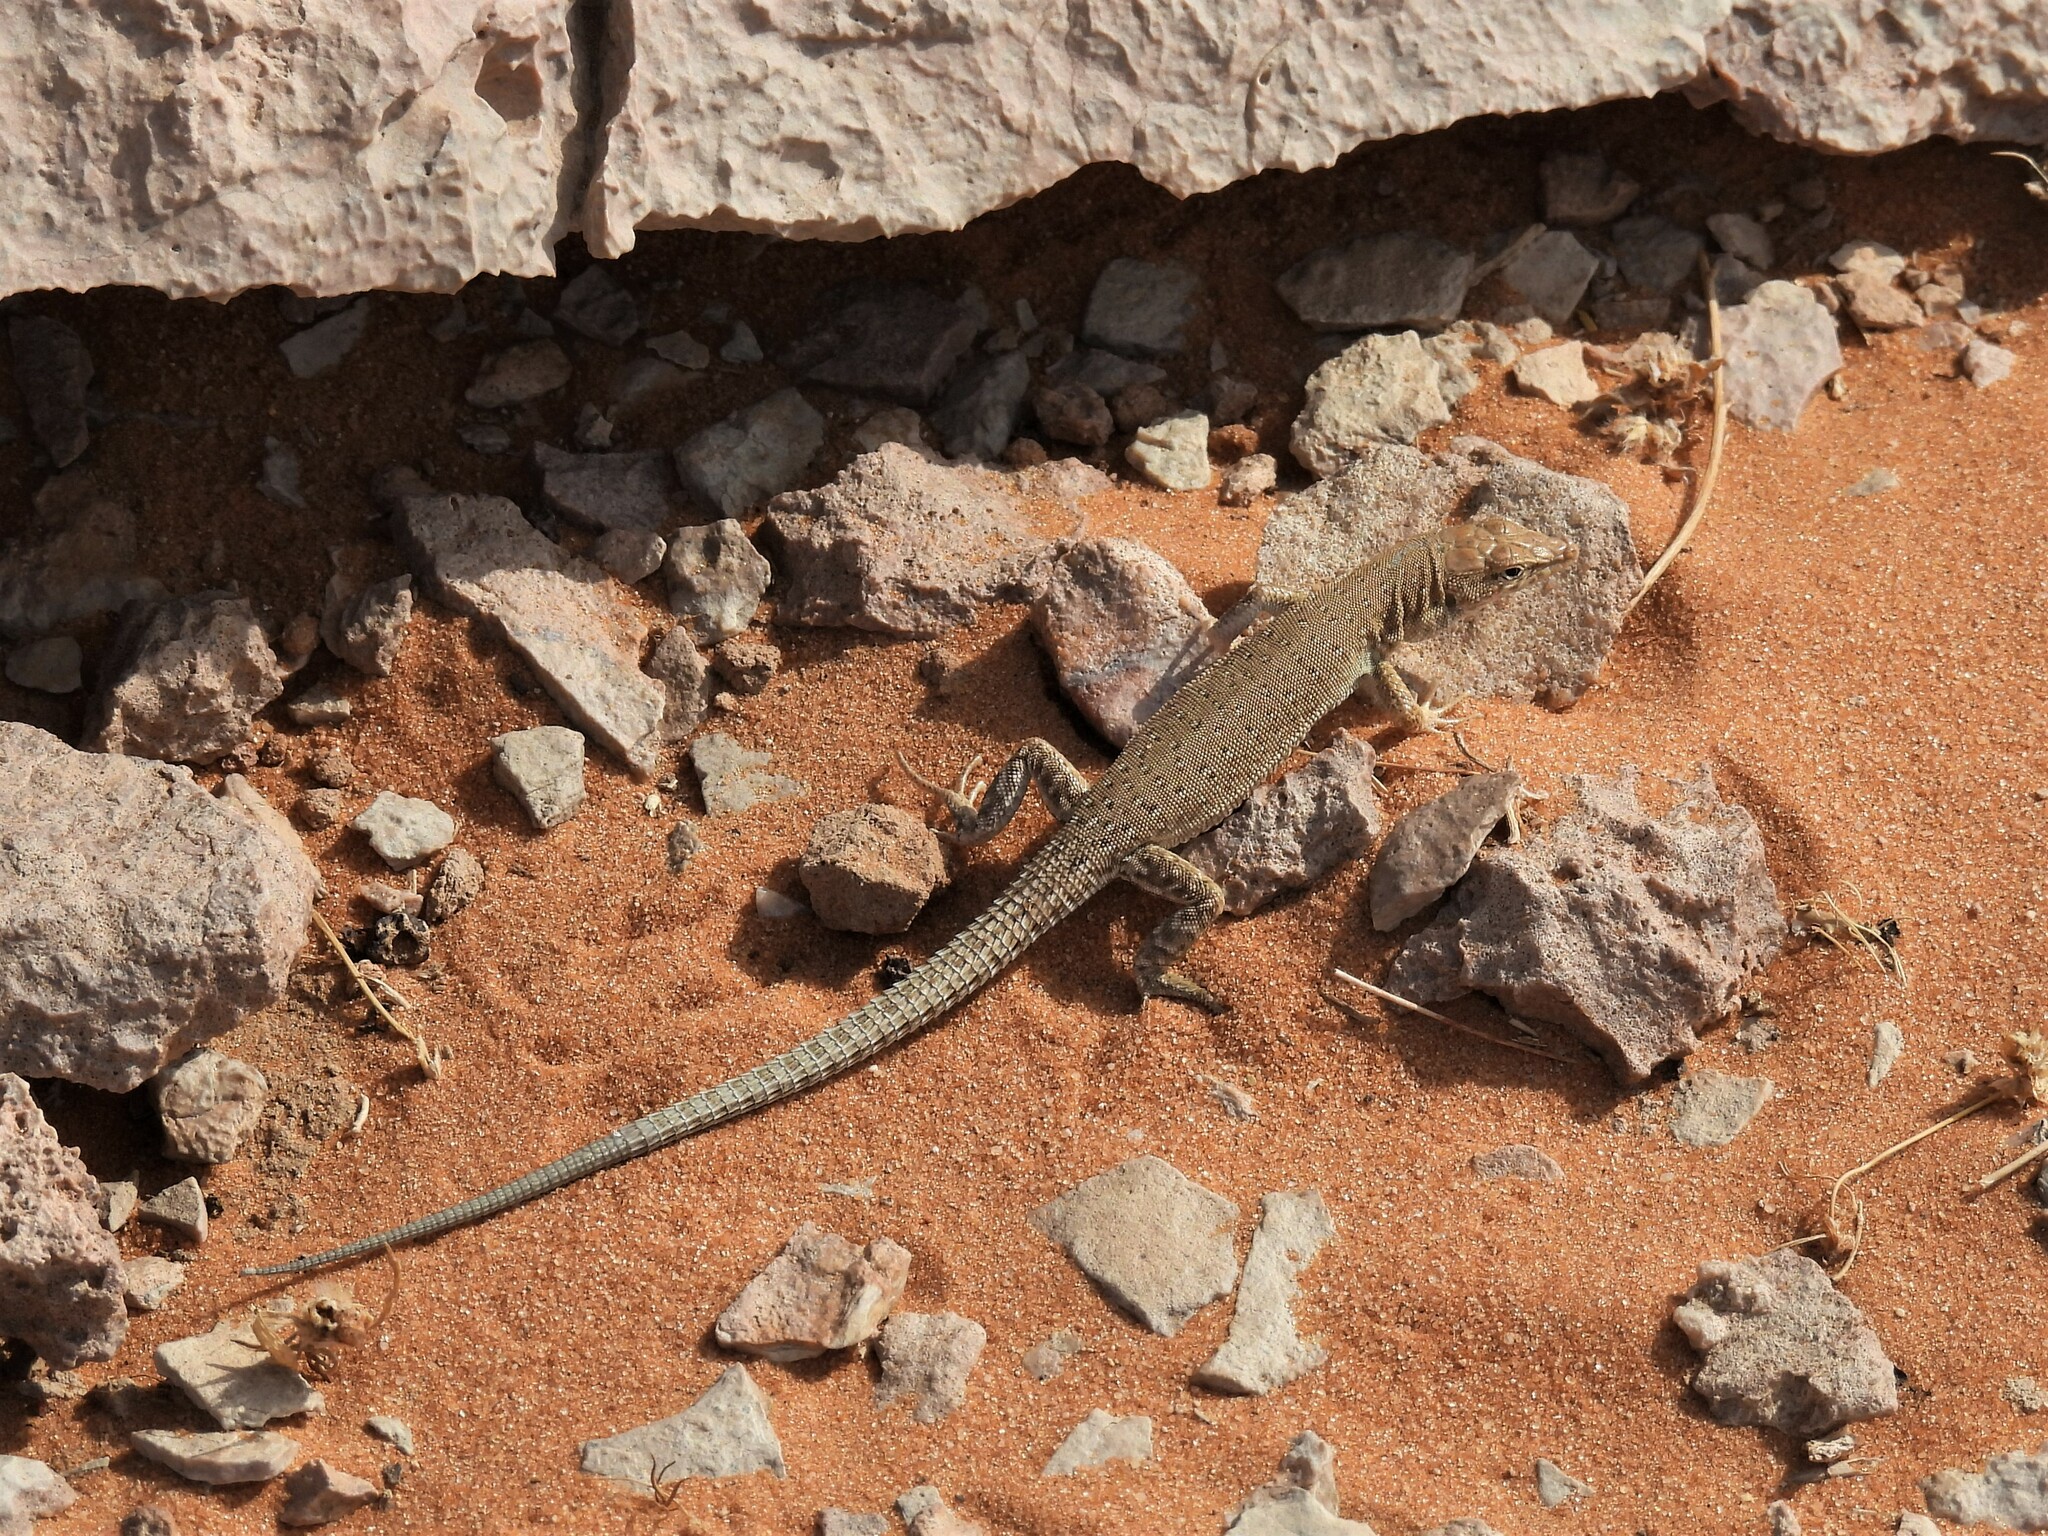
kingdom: Animalia
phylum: Chordata
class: Squamata
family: Lacertidae
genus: Mesalina
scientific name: Mesalina guttulata
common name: Desert lacerta
